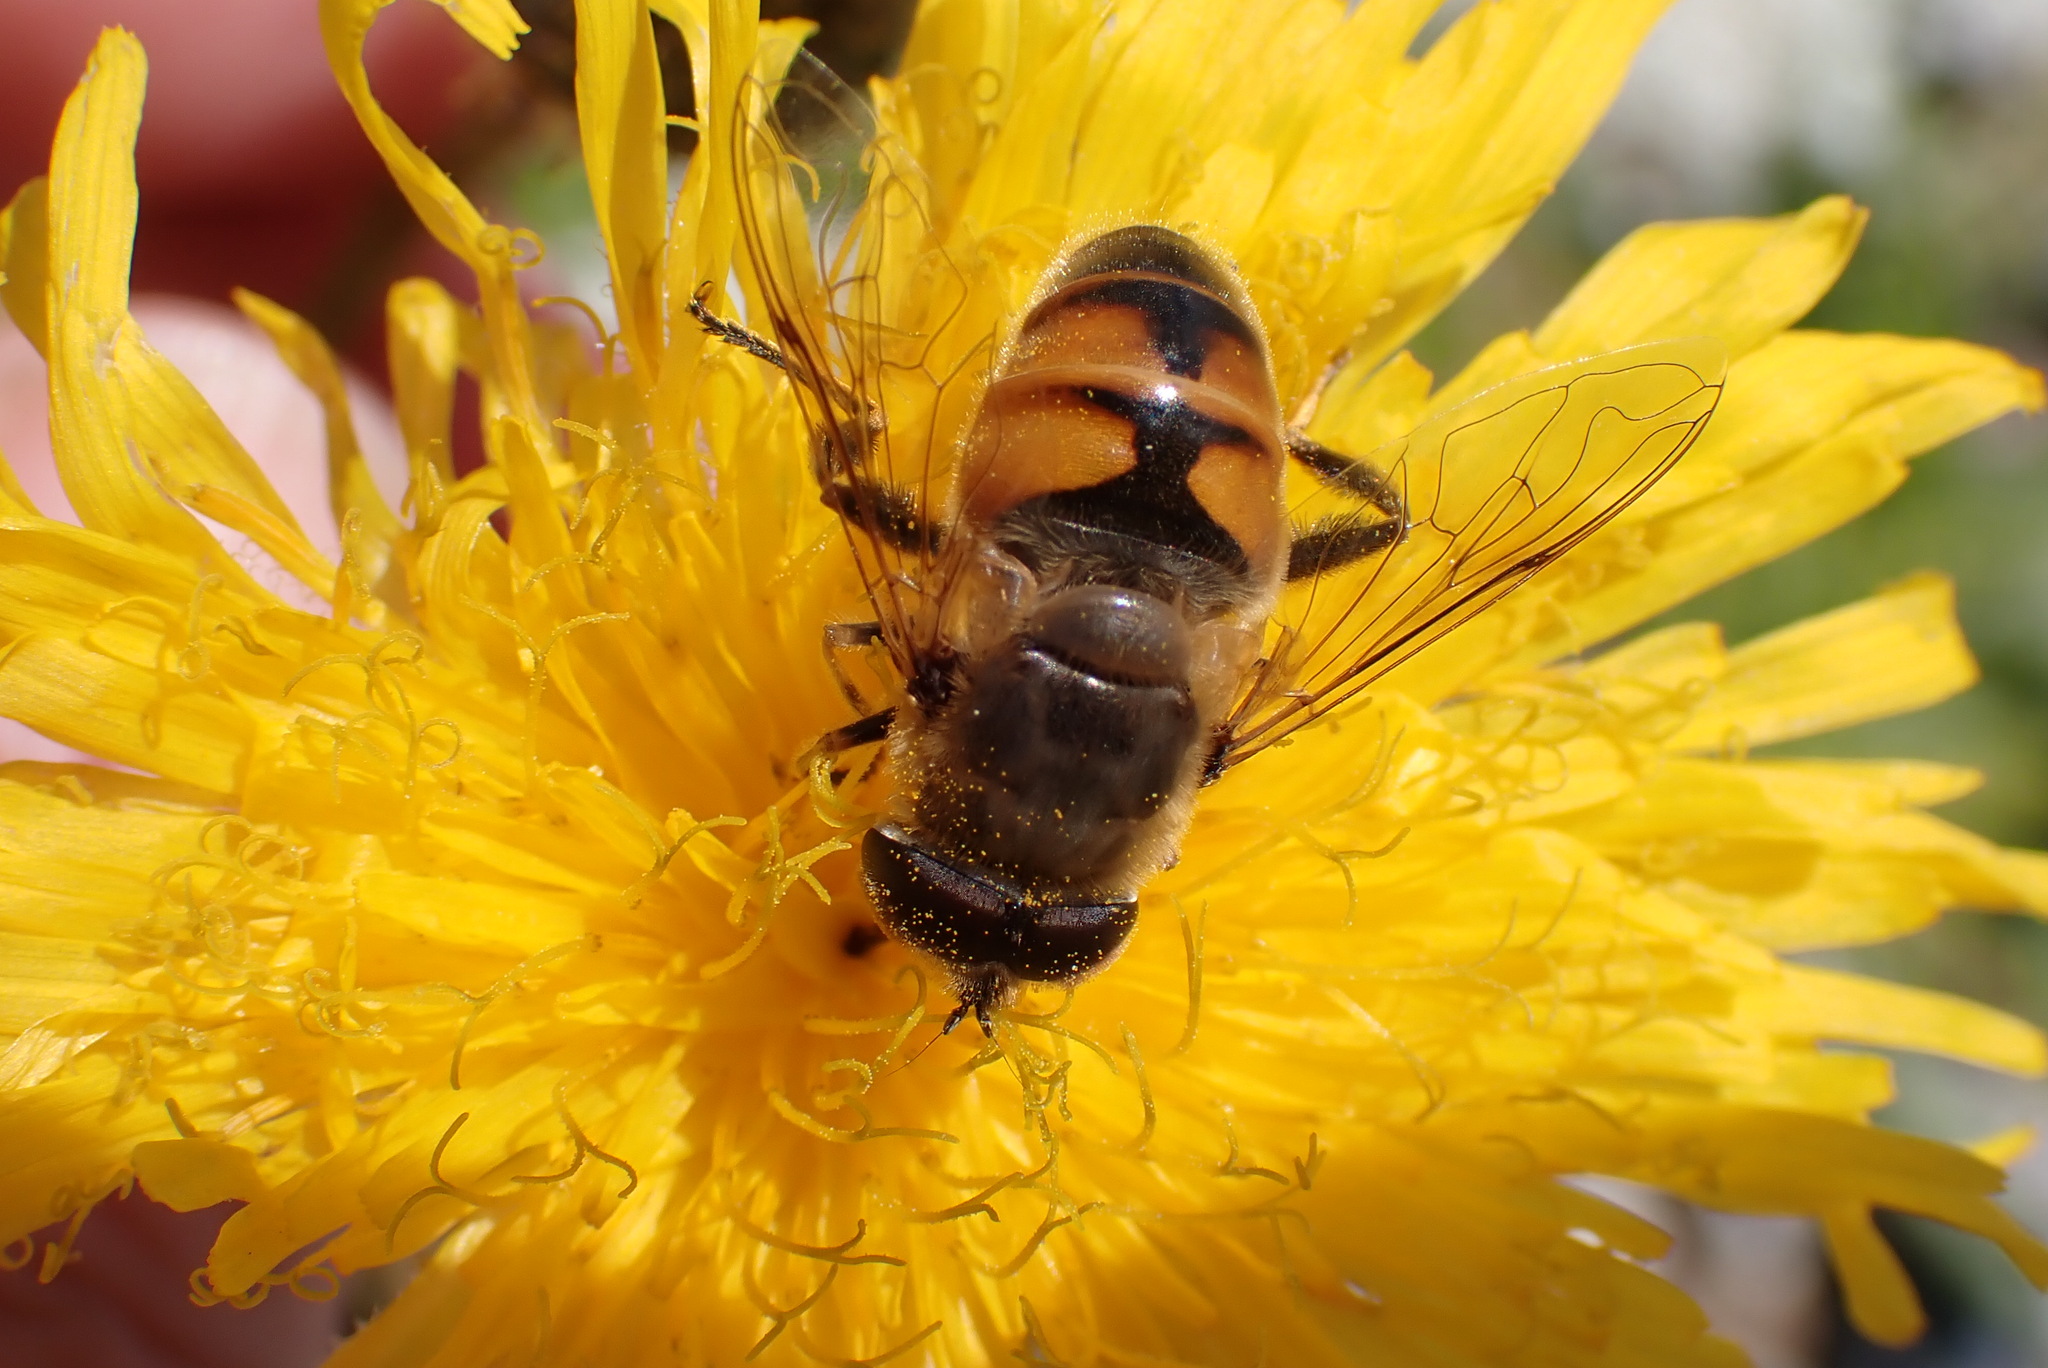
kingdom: Animalia
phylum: Arthropoda
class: Insecta
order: Diptera
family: Syrphidae
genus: Eristalis
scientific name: Eristalis tenax
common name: Drone fly
